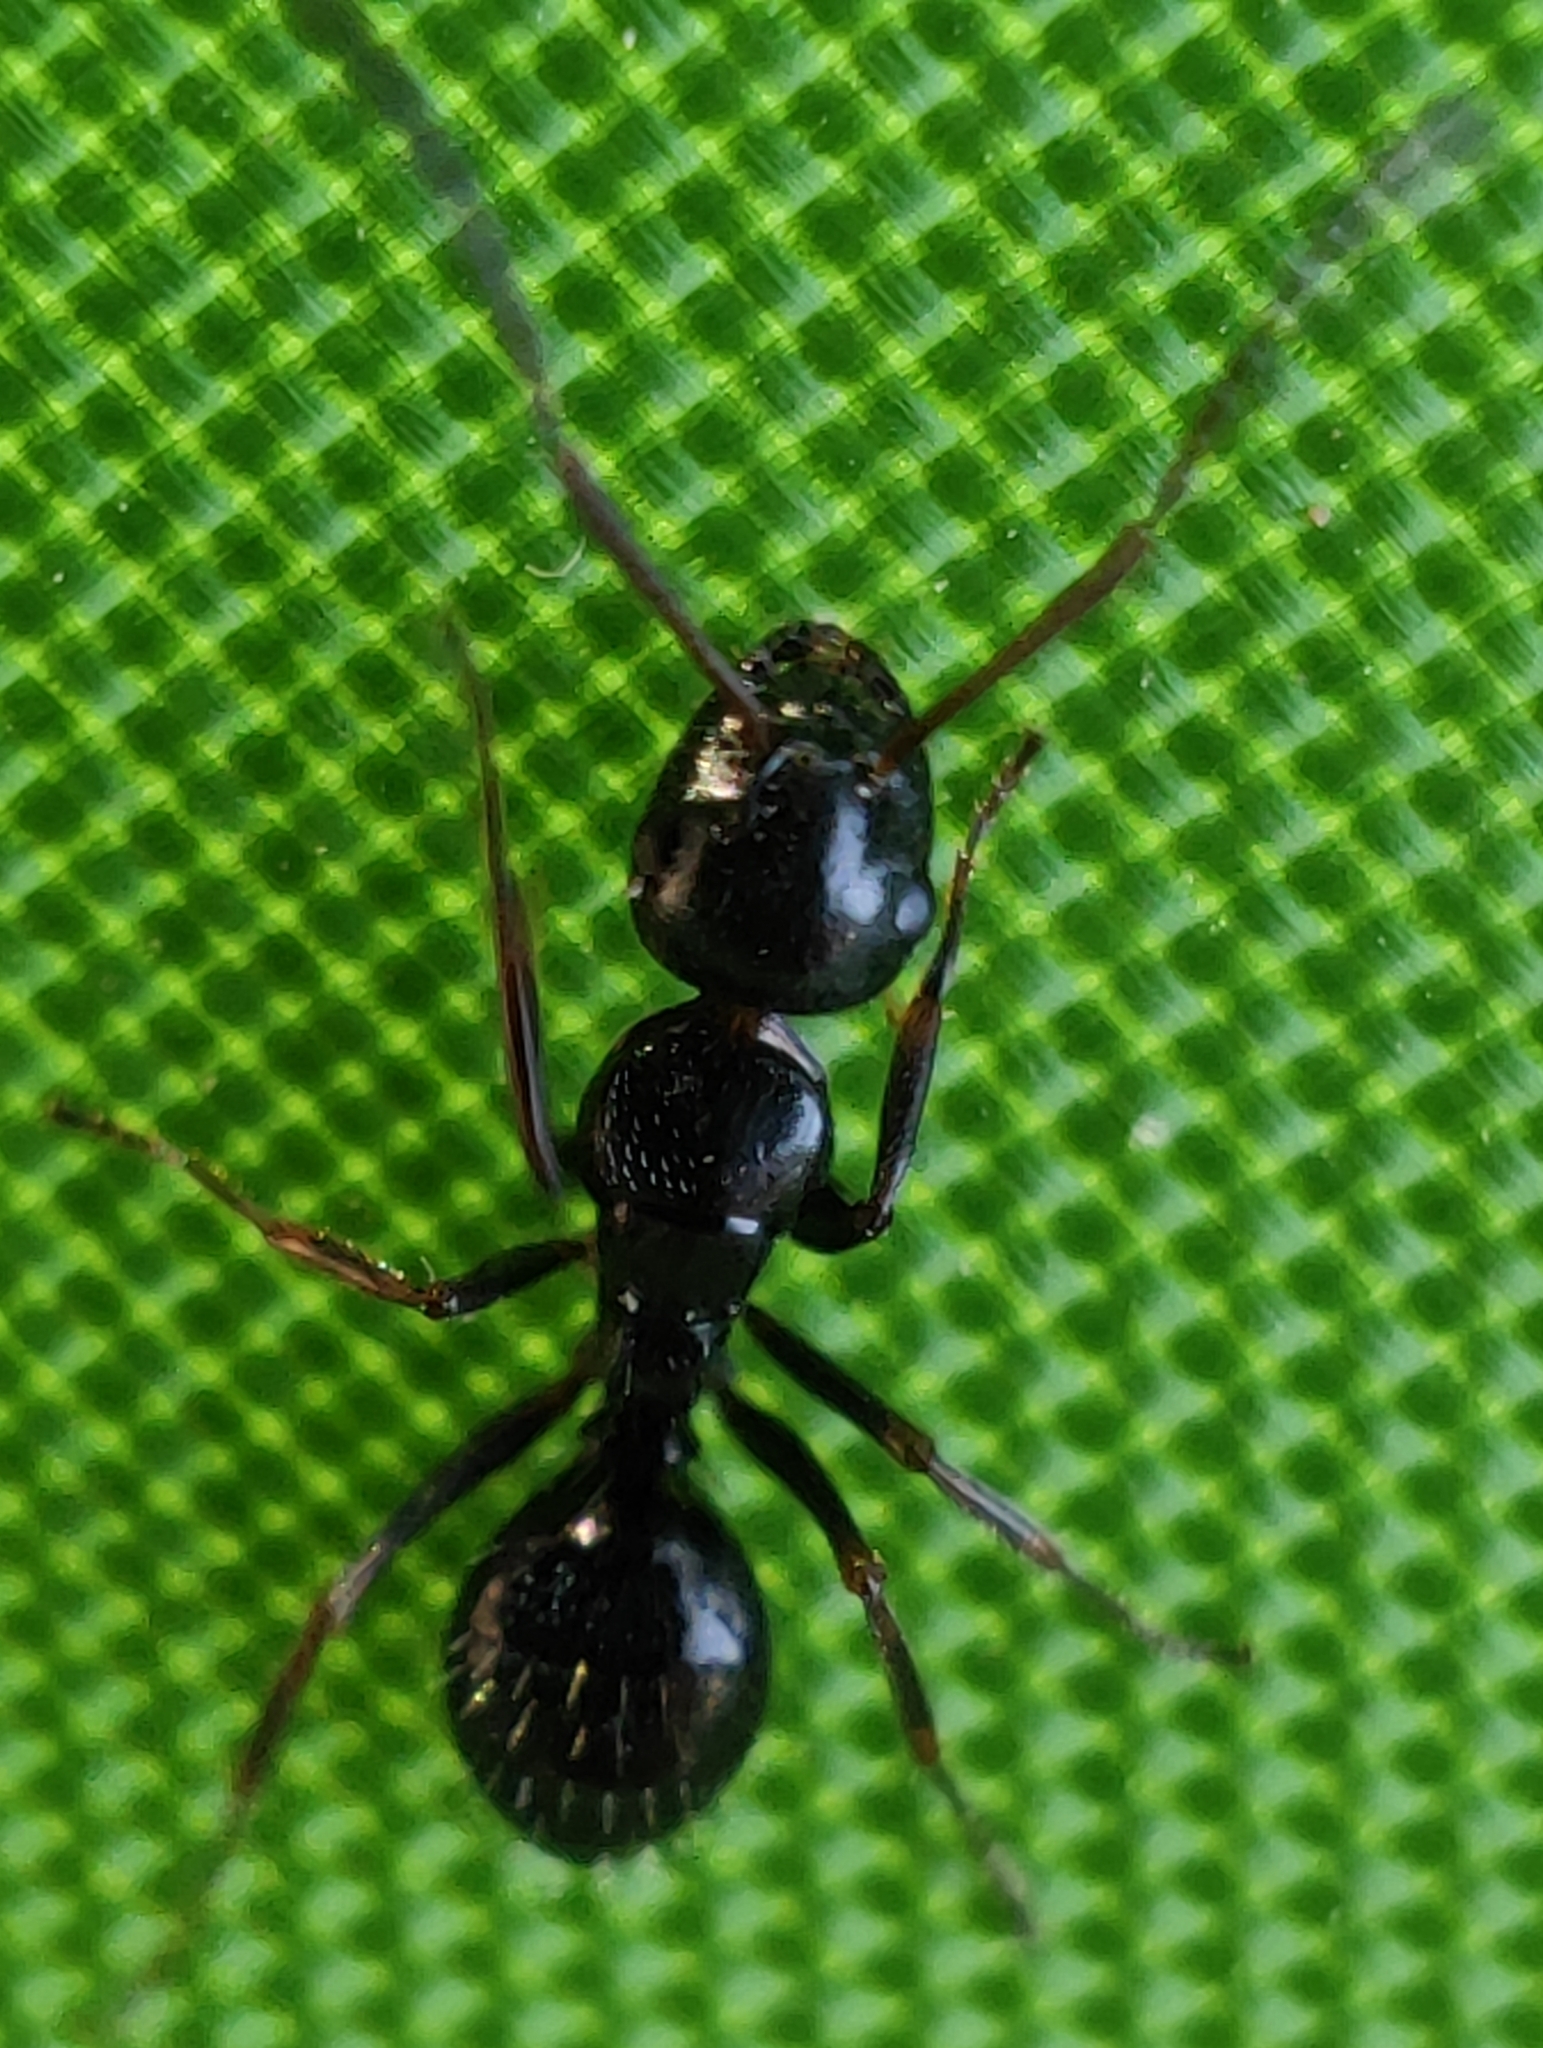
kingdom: Animalia
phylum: Arthropoda
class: Insecta
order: Hymenoptera
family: Formicidae
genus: Camponotus
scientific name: Camponotus piceus
